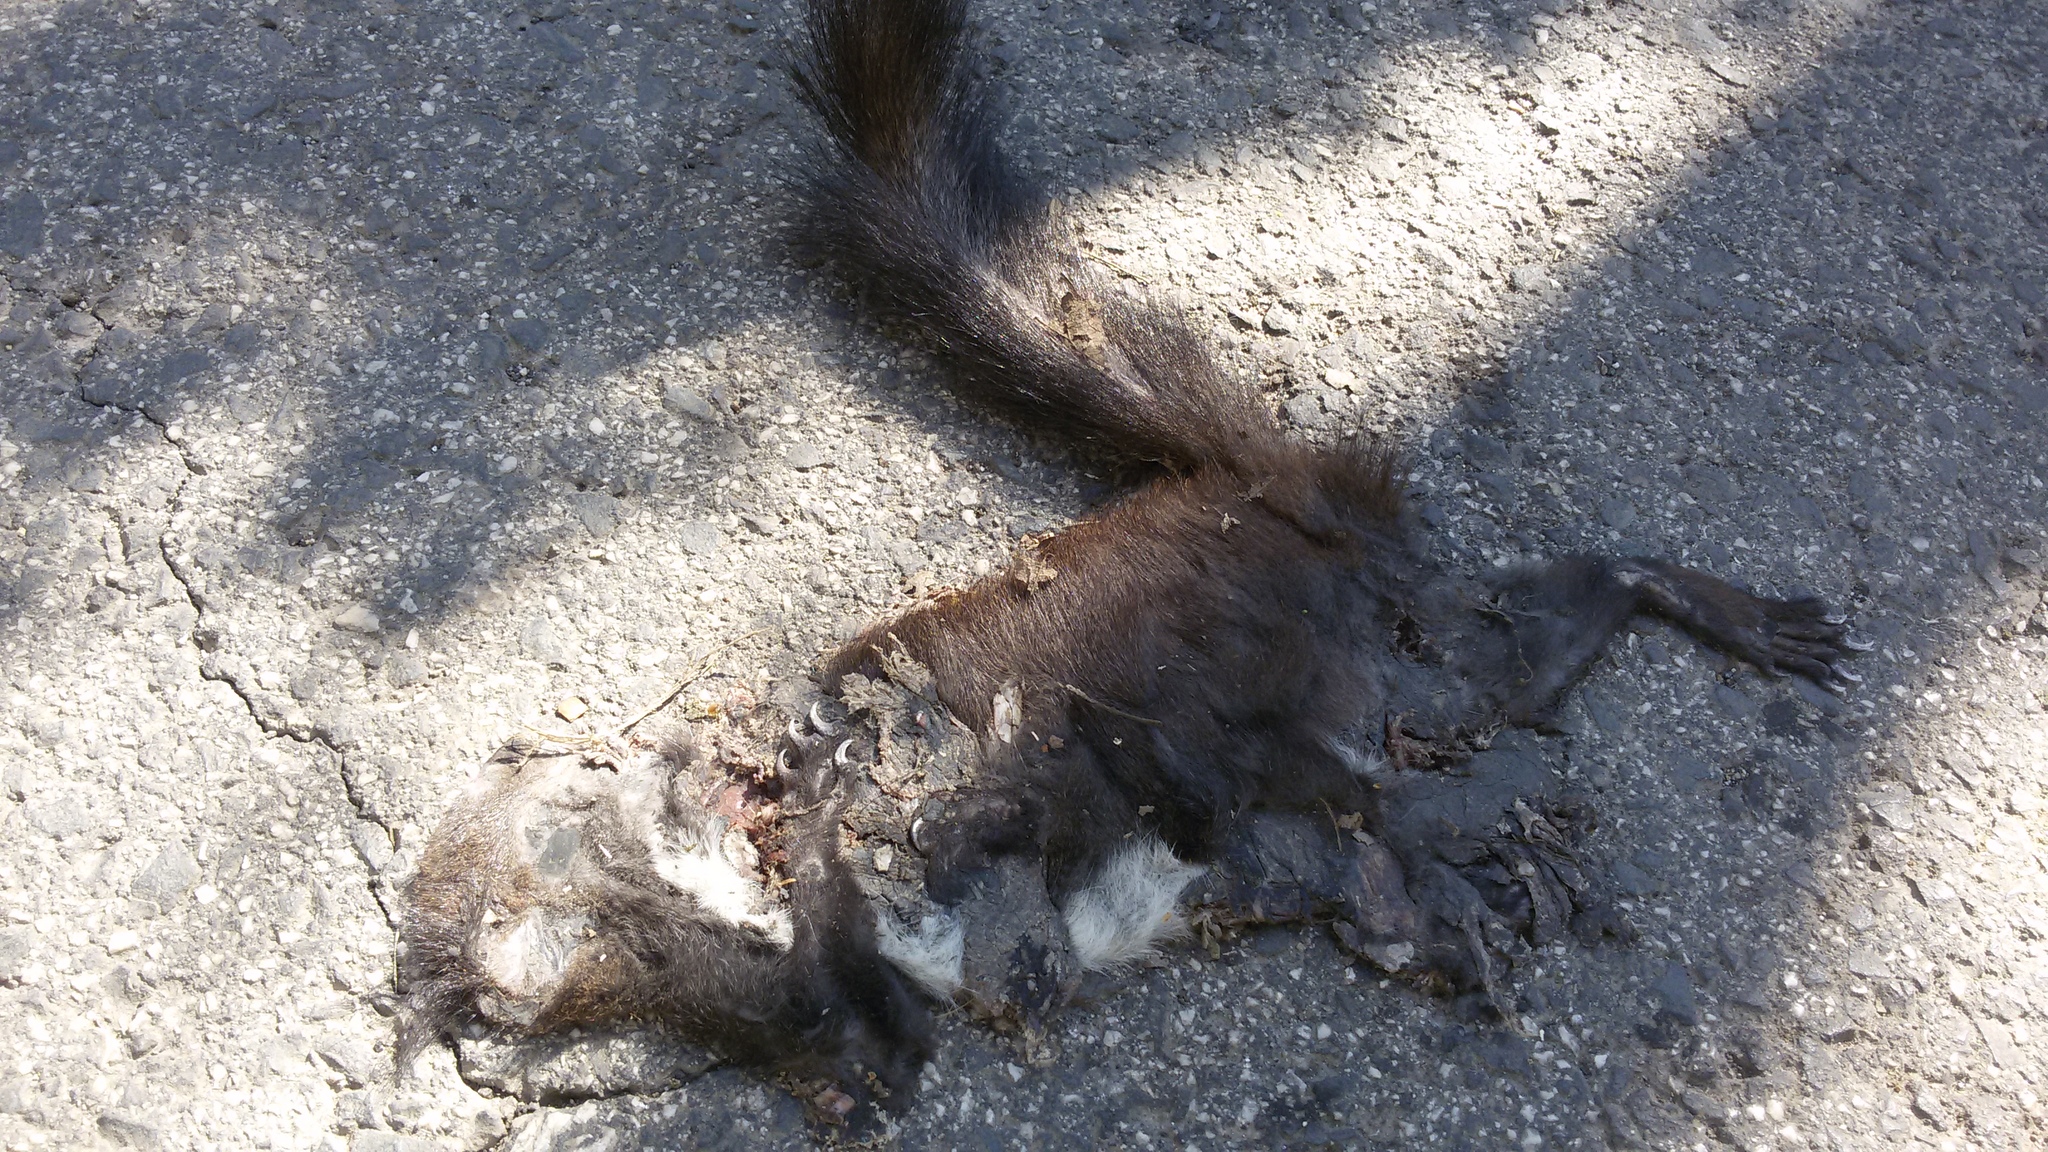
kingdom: Animalia
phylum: Chordata
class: Mammalia
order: Rodentia
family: Sciuridae
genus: Sciurus
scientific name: Sciurus vulgaris
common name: Eurasian red squirrel
